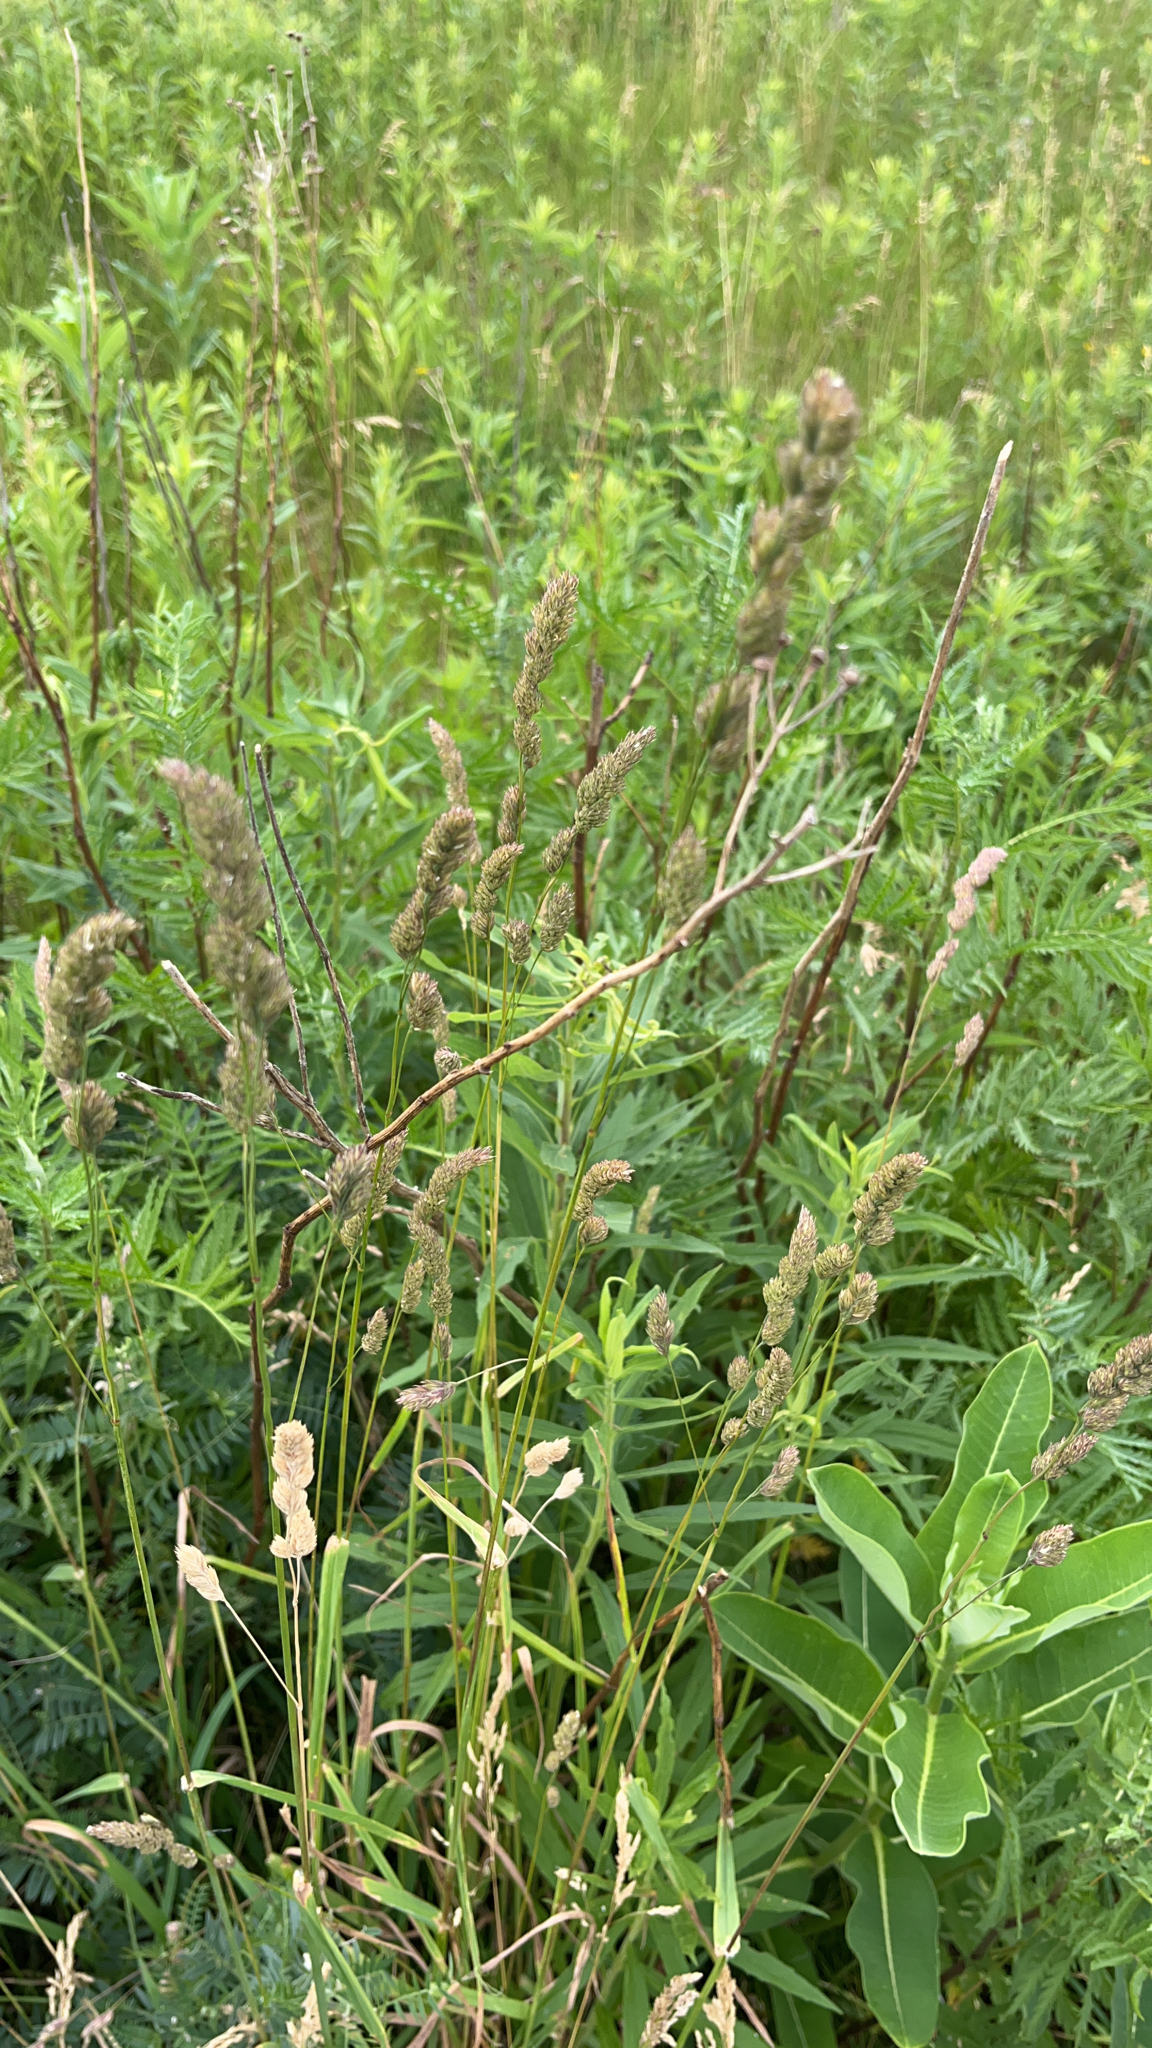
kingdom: Plantae
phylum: Tracheophyta
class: Liliopsida
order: Poales
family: Poaceae
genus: Dactylis
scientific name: Dactylis glomerata
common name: Orchardgrass
